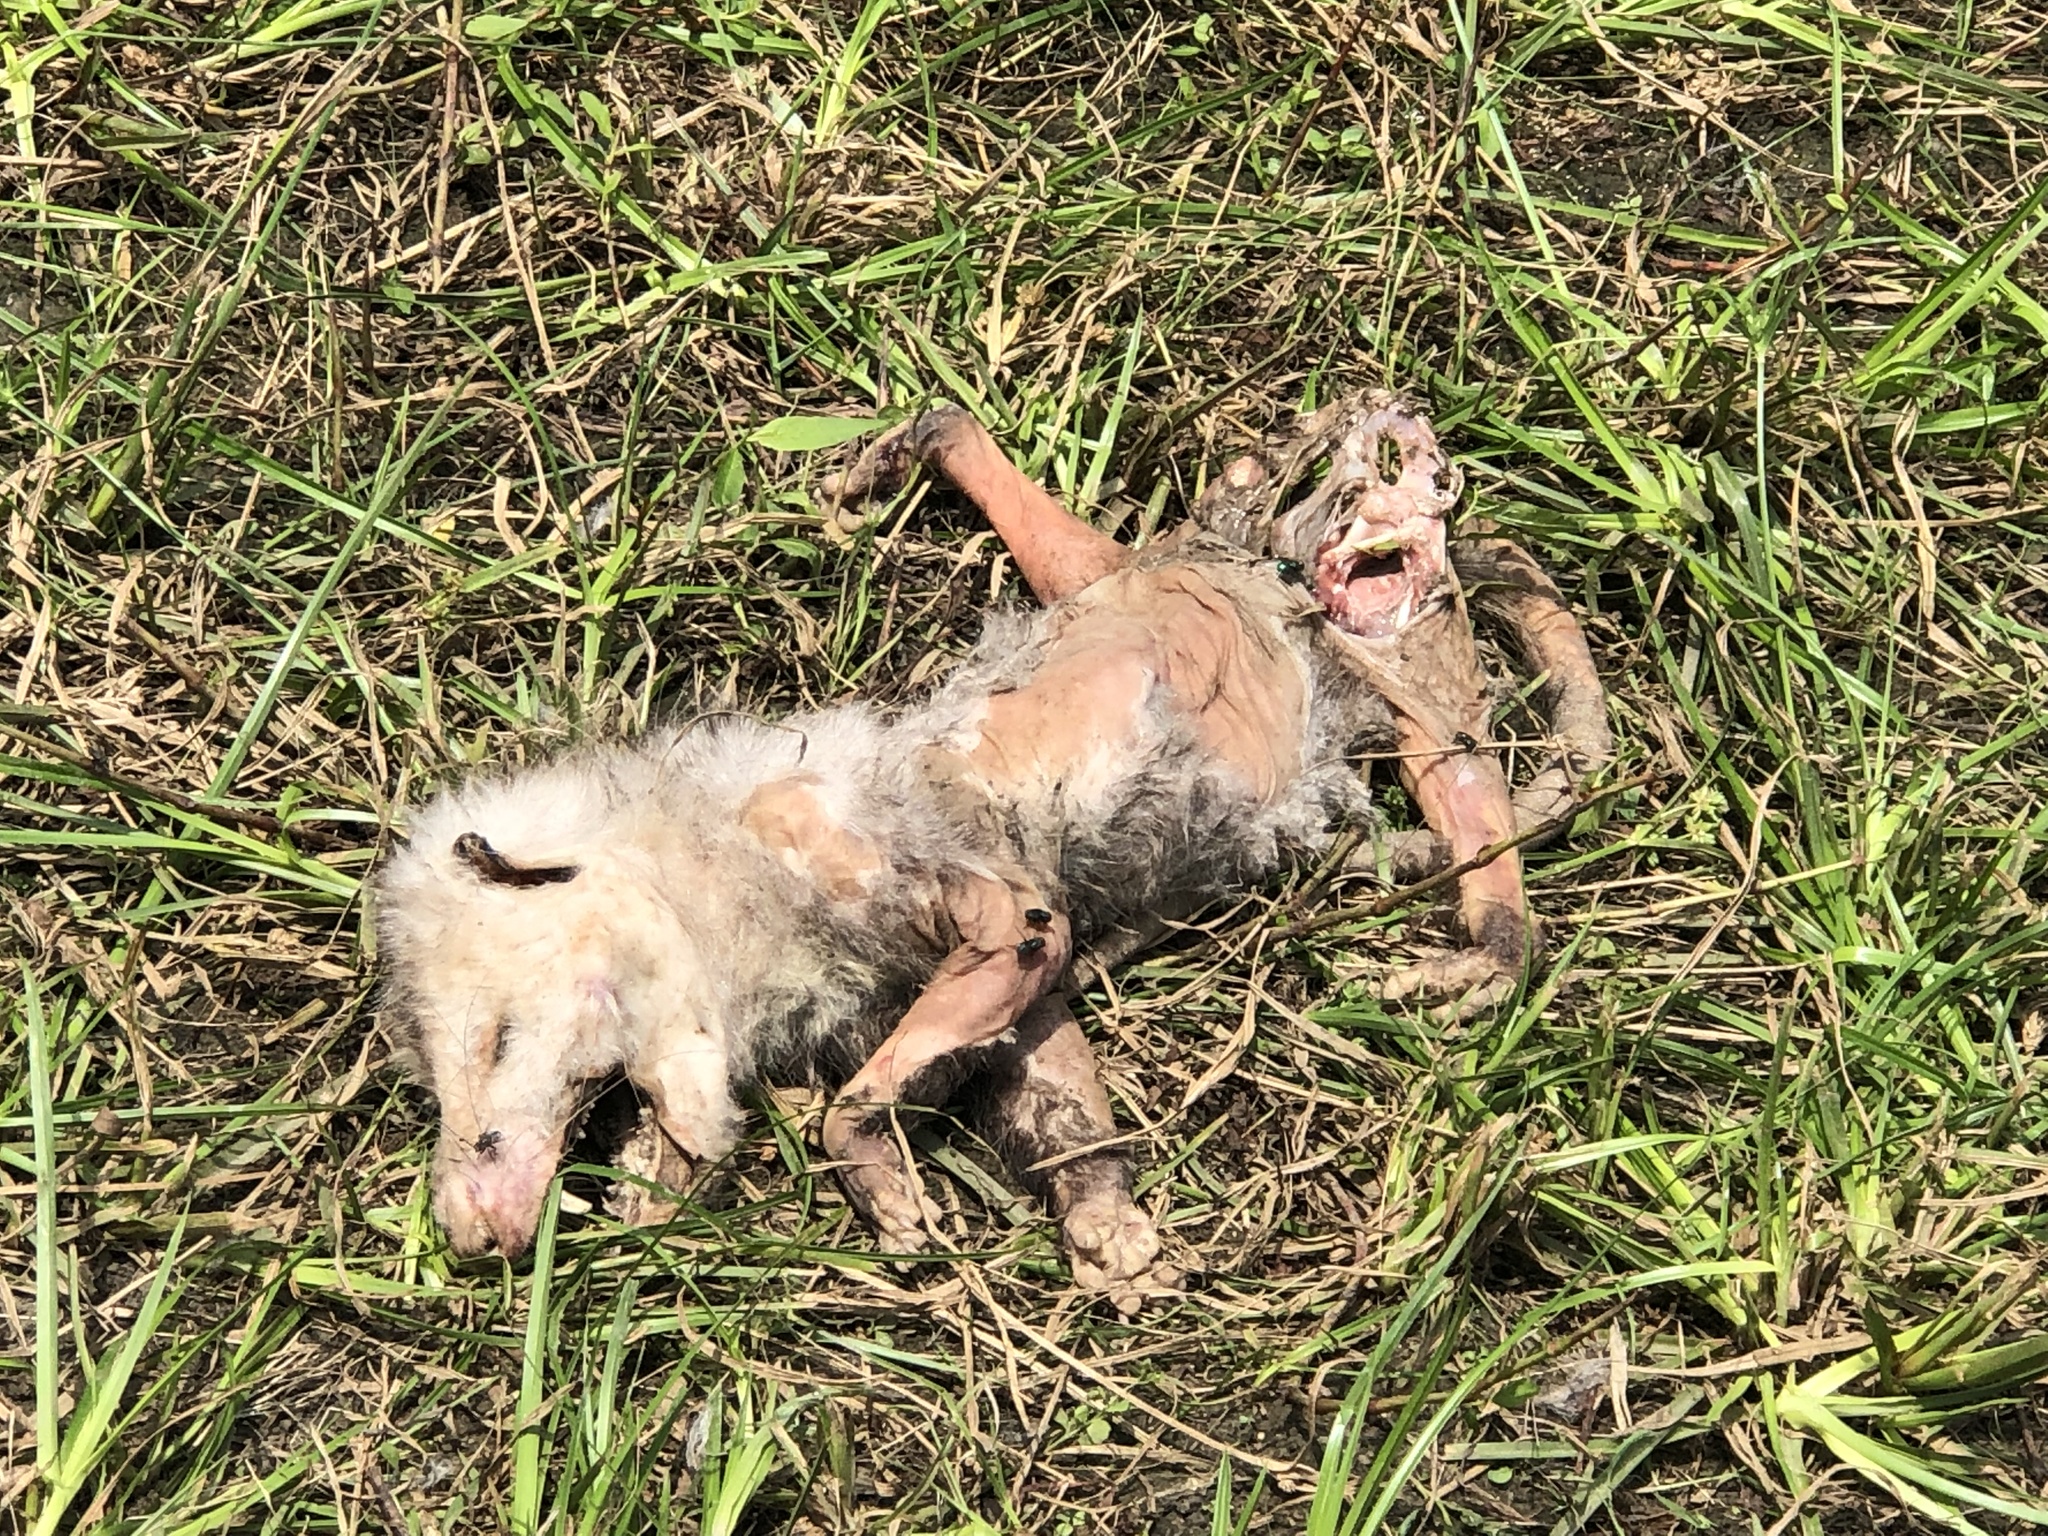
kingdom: Animalia
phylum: Chordata
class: Mammalia
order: Didelphimorphia
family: Didelphidae
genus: Didelphis
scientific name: Didelphis virginiana
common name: Virginia opossum
